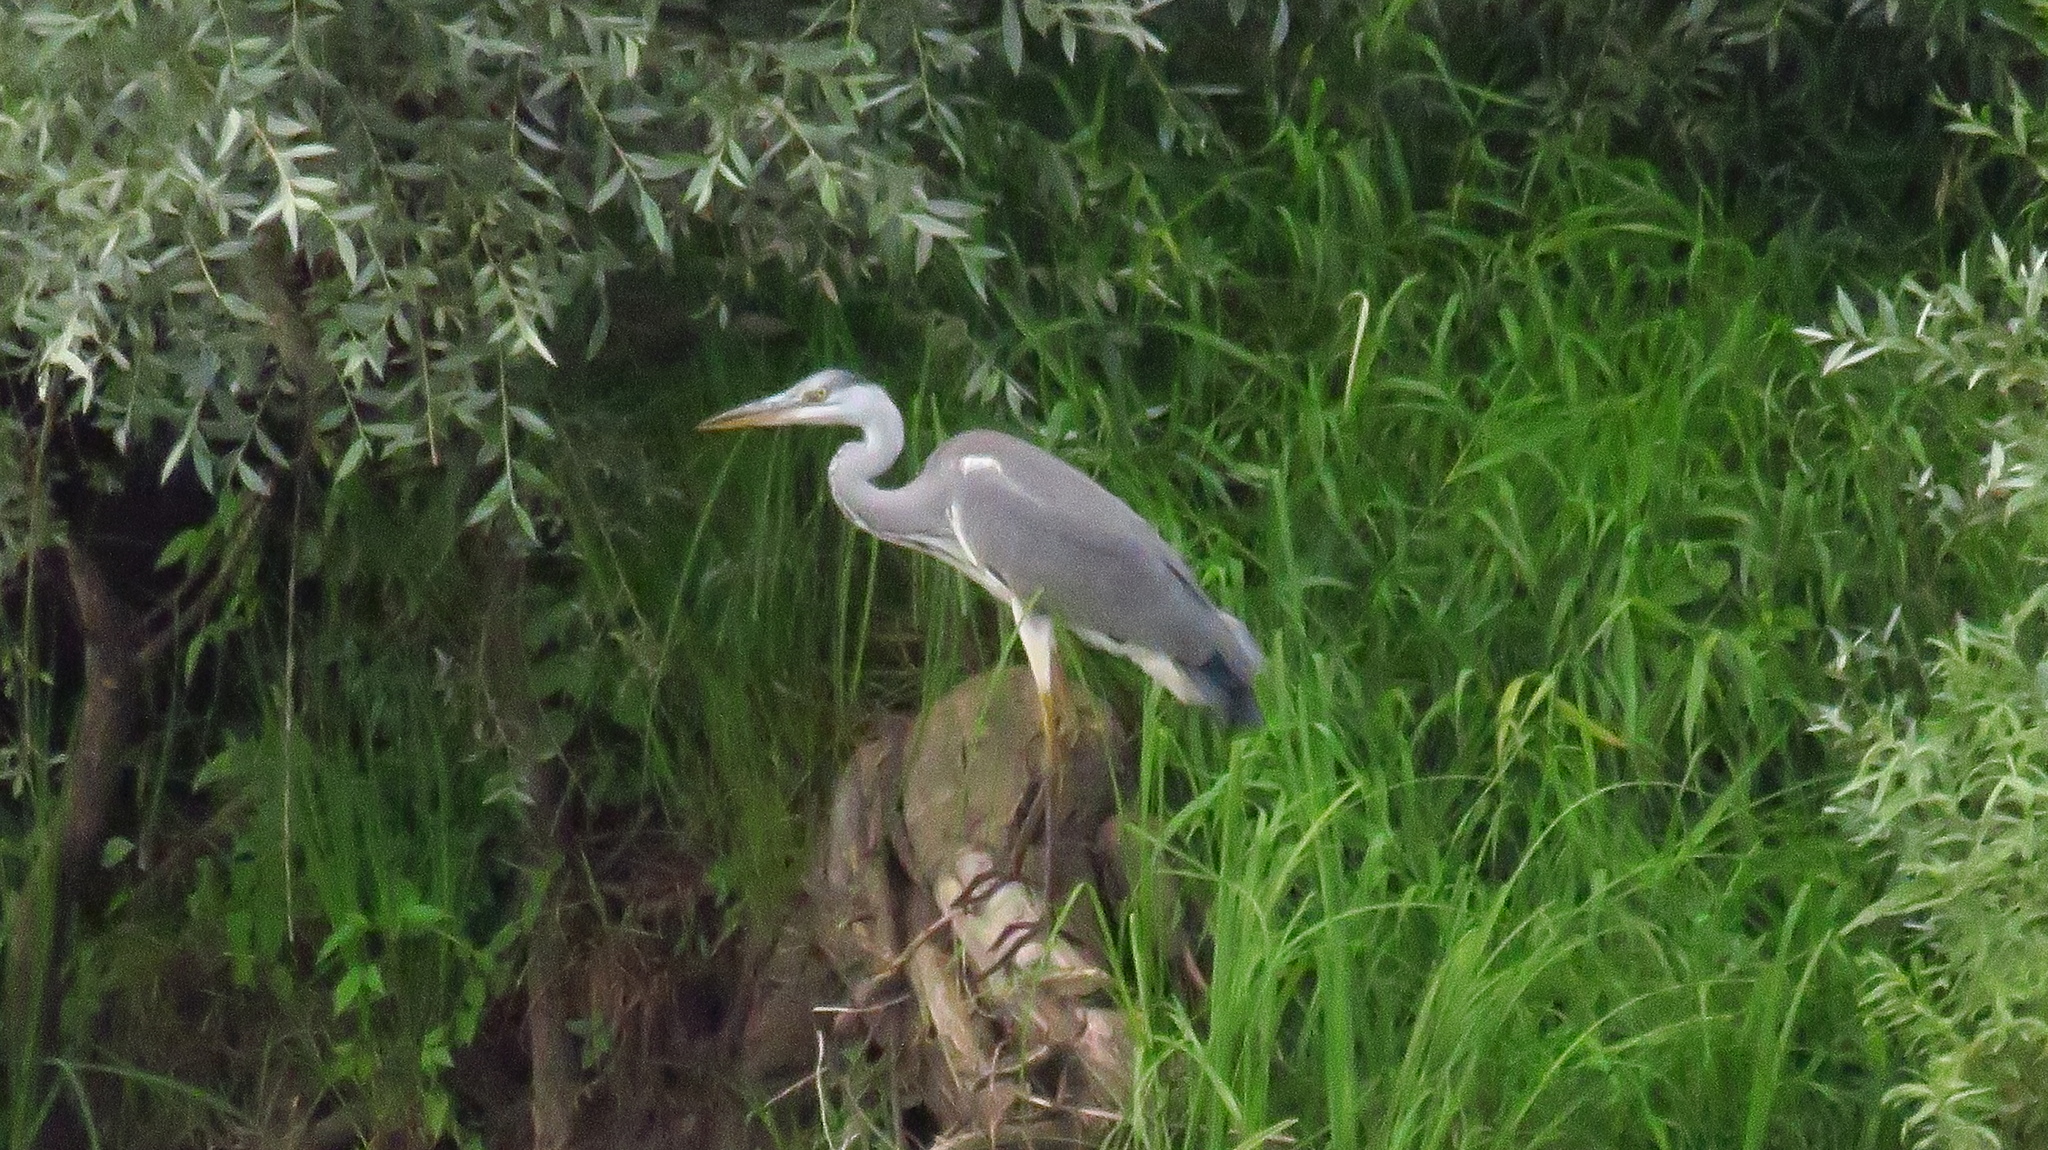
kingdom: Animalia
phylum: Chordata
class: Aves
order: Pelecaniformes
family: Ardeidae
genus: Ardea
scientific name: Ardea cinerea
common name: Grey heron
